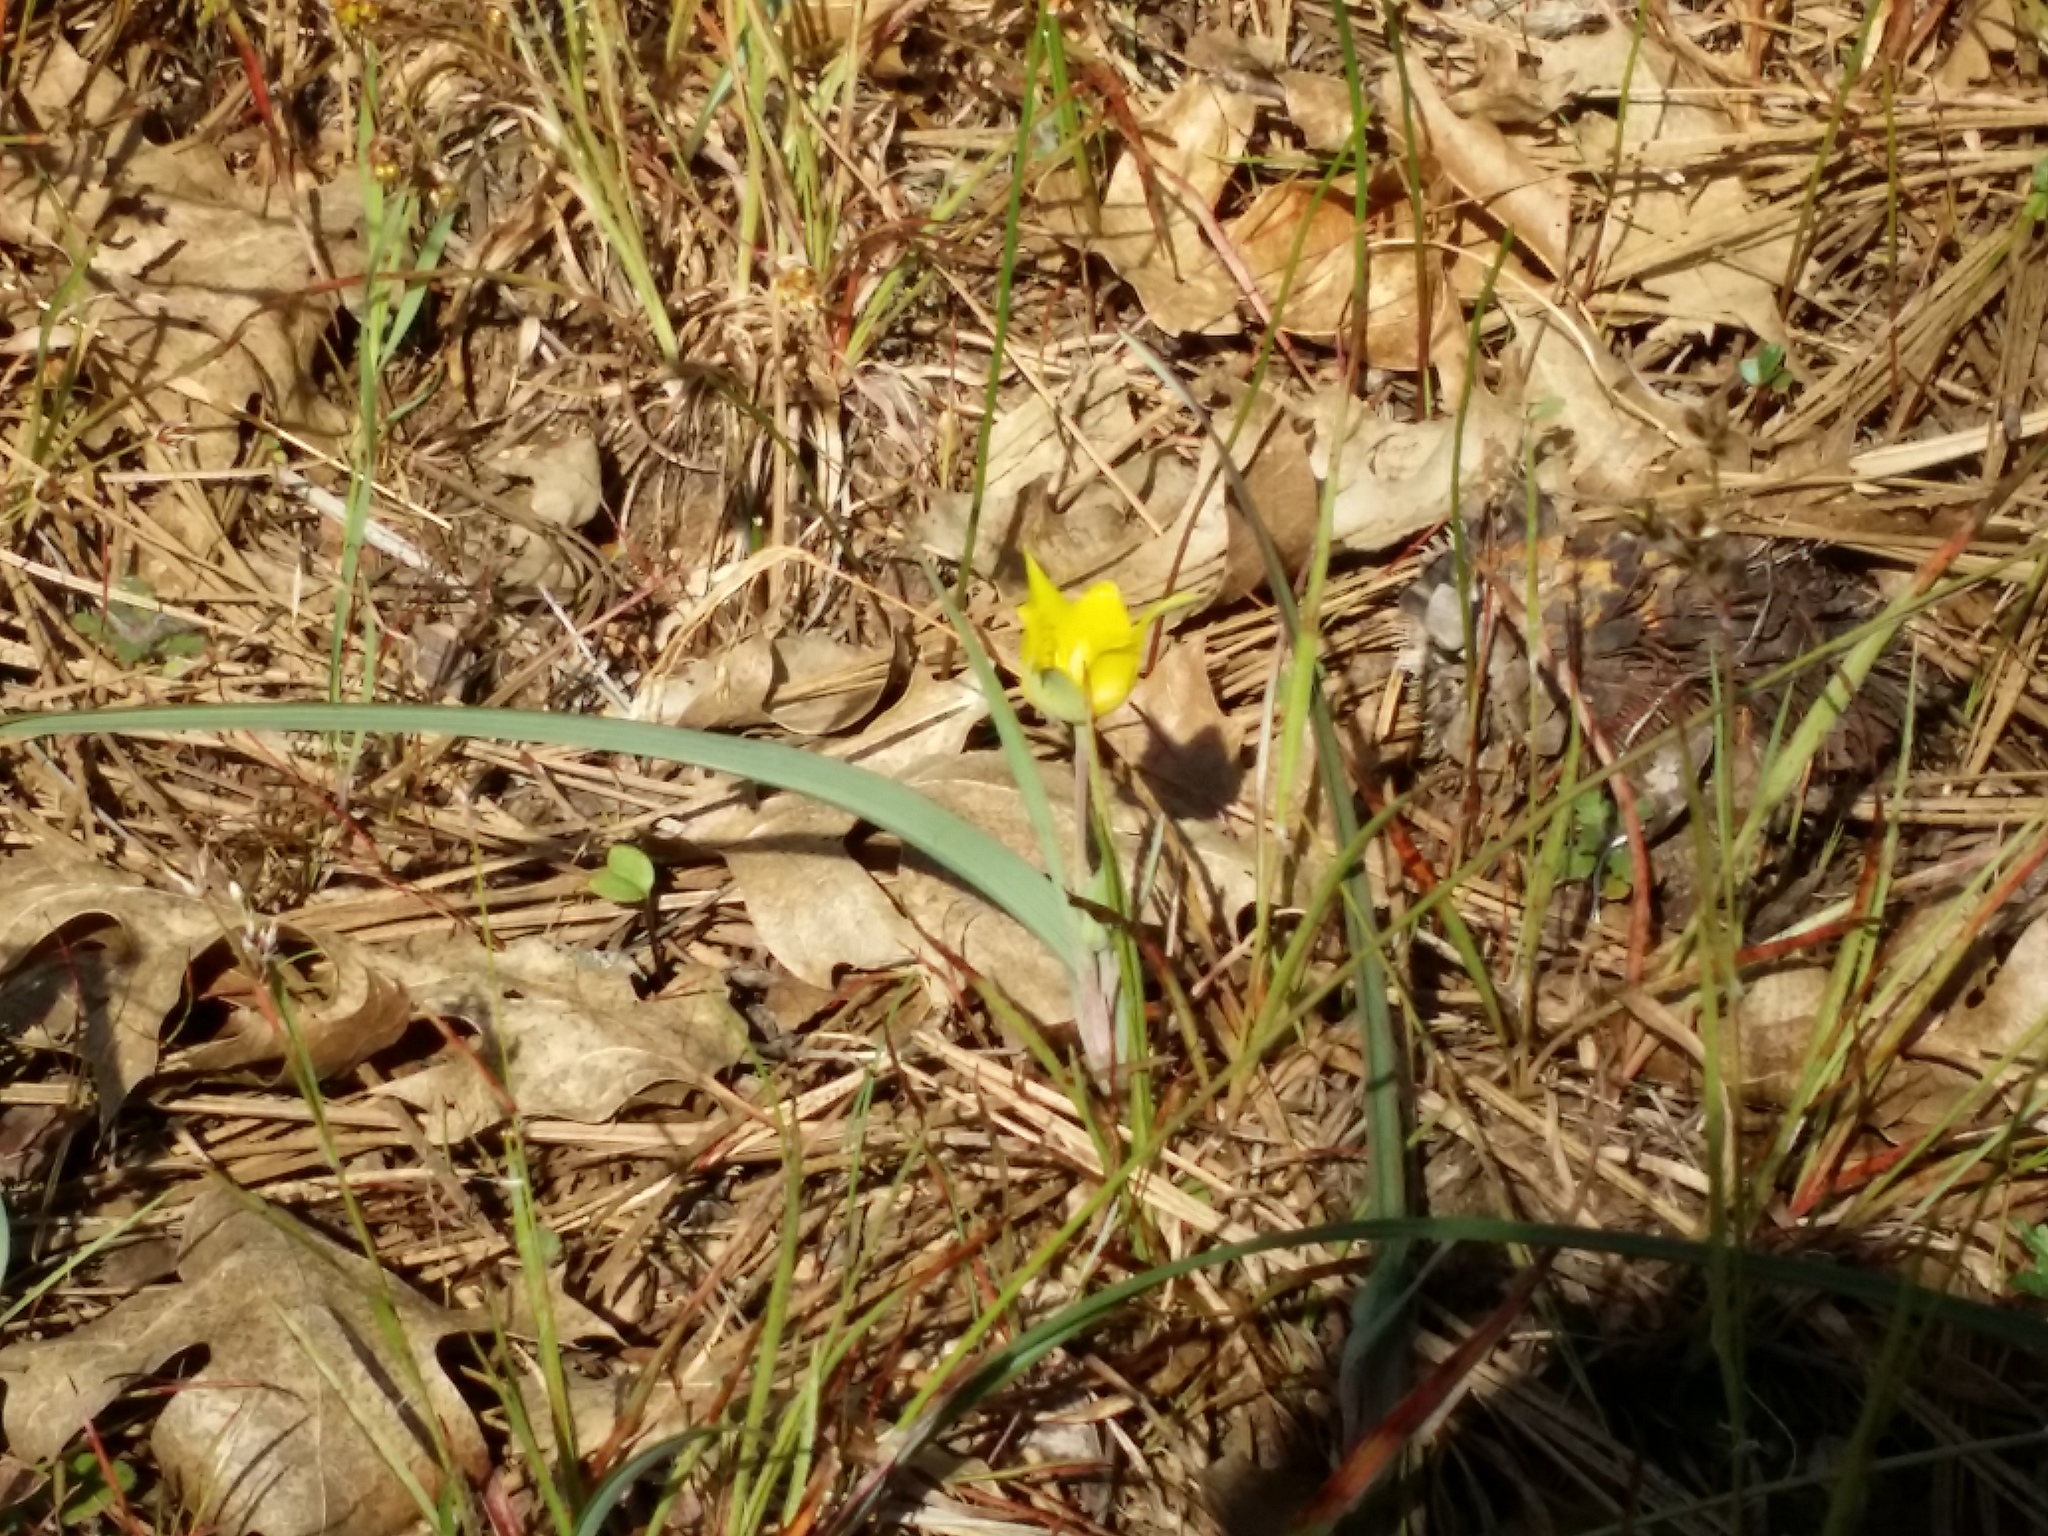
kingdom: Plantae
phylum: Tracheophyta
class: Liliopsida
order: Liliales
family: Liliaceae
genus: Calochortus
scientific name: Calochortus monophyllus
